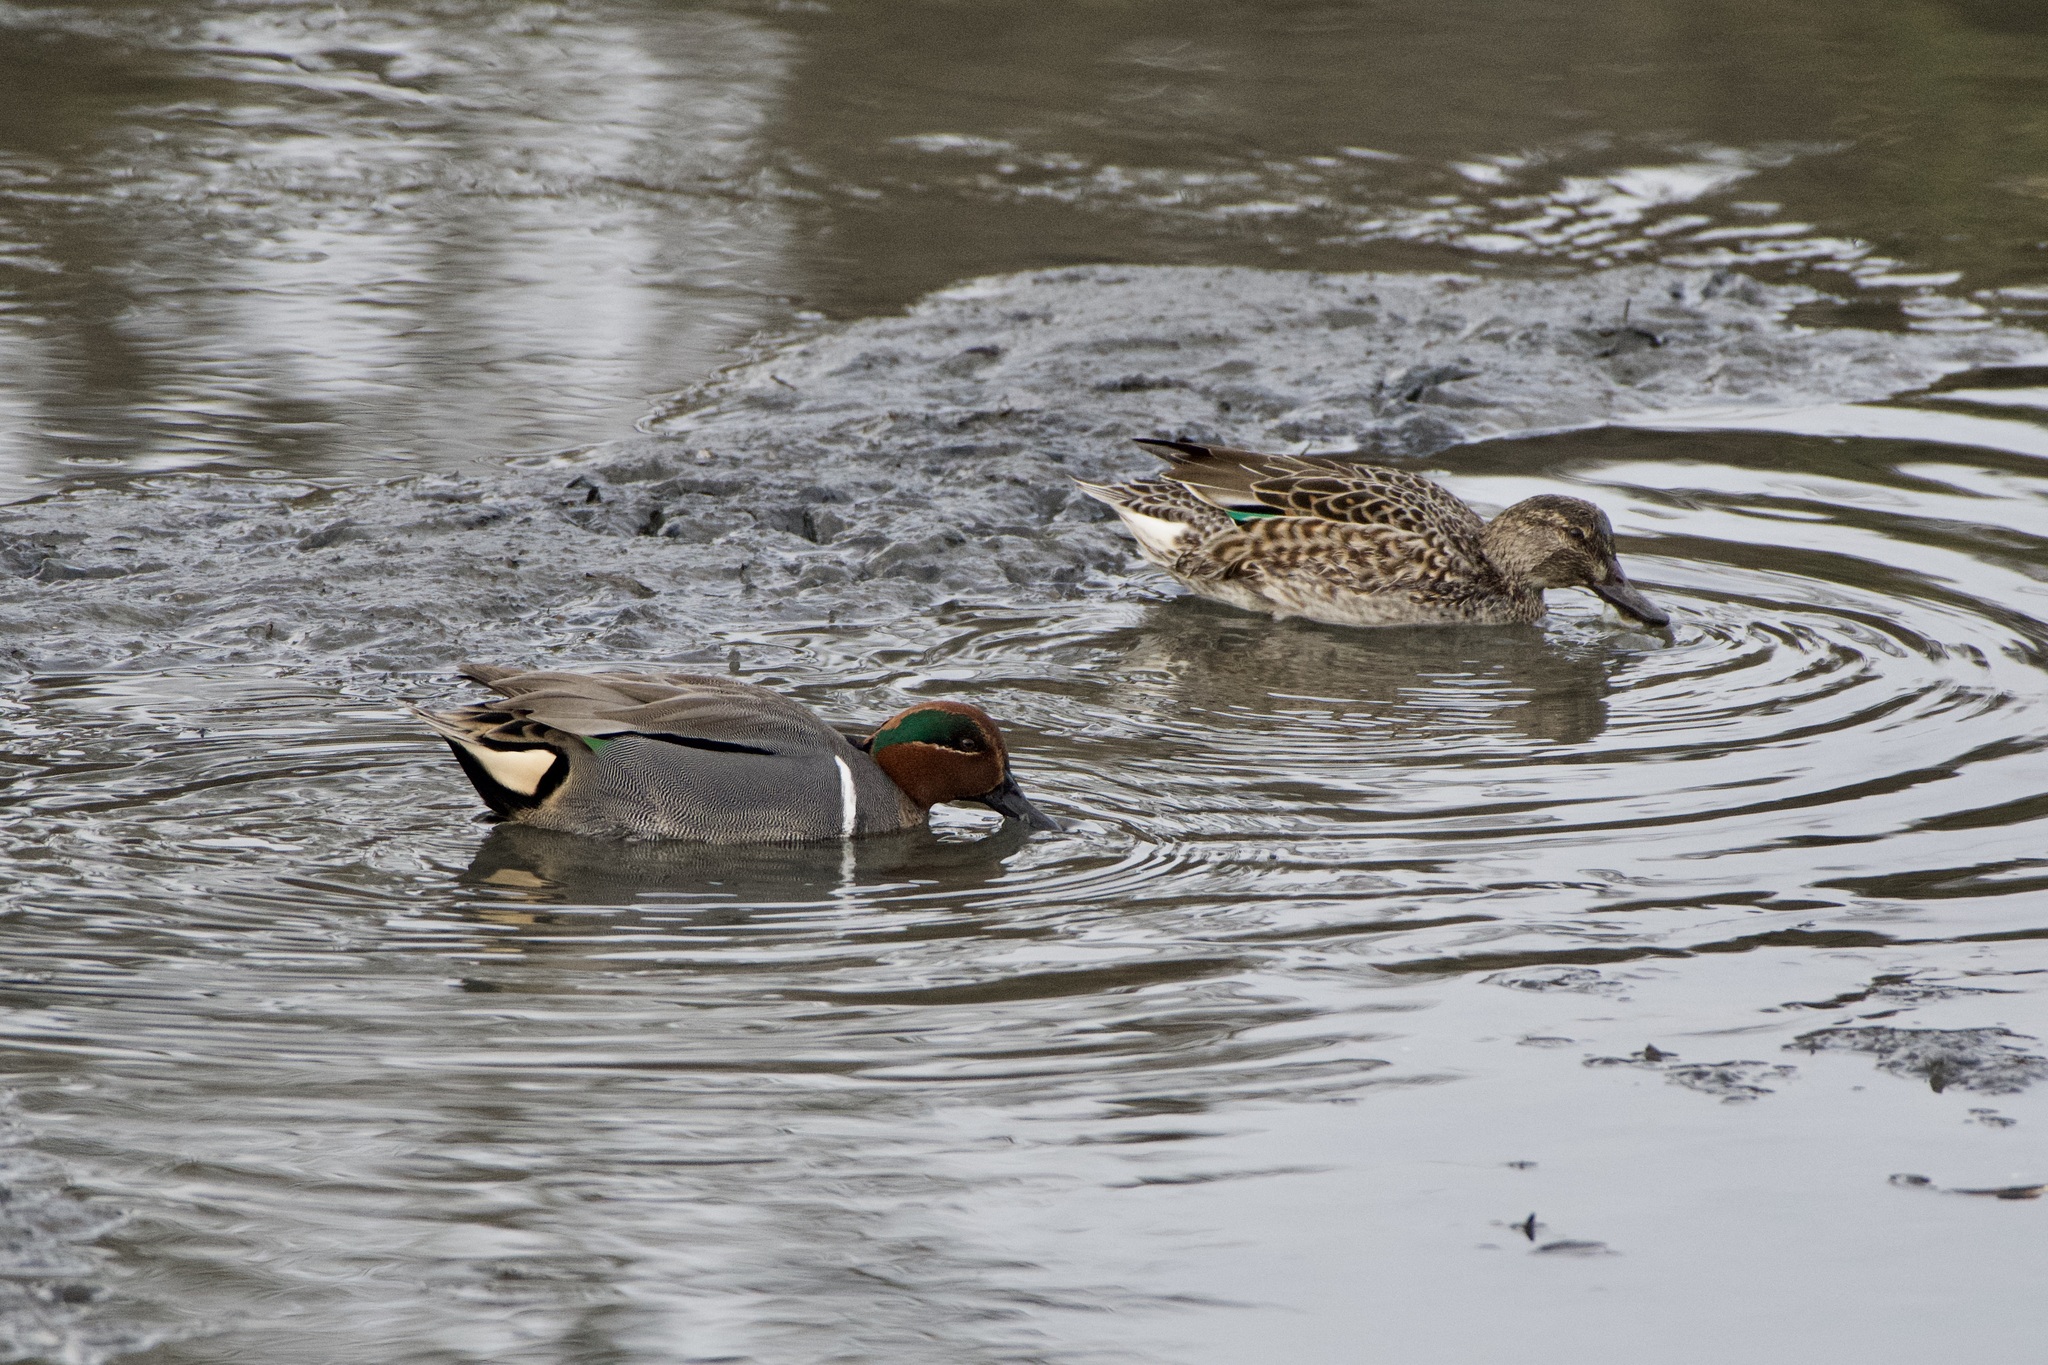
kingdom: Animalia
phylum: Chordata
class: Aves
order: Anseriformes
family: Anatidae
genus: Anas
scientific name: Anas crecca
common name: Eurasian teal
